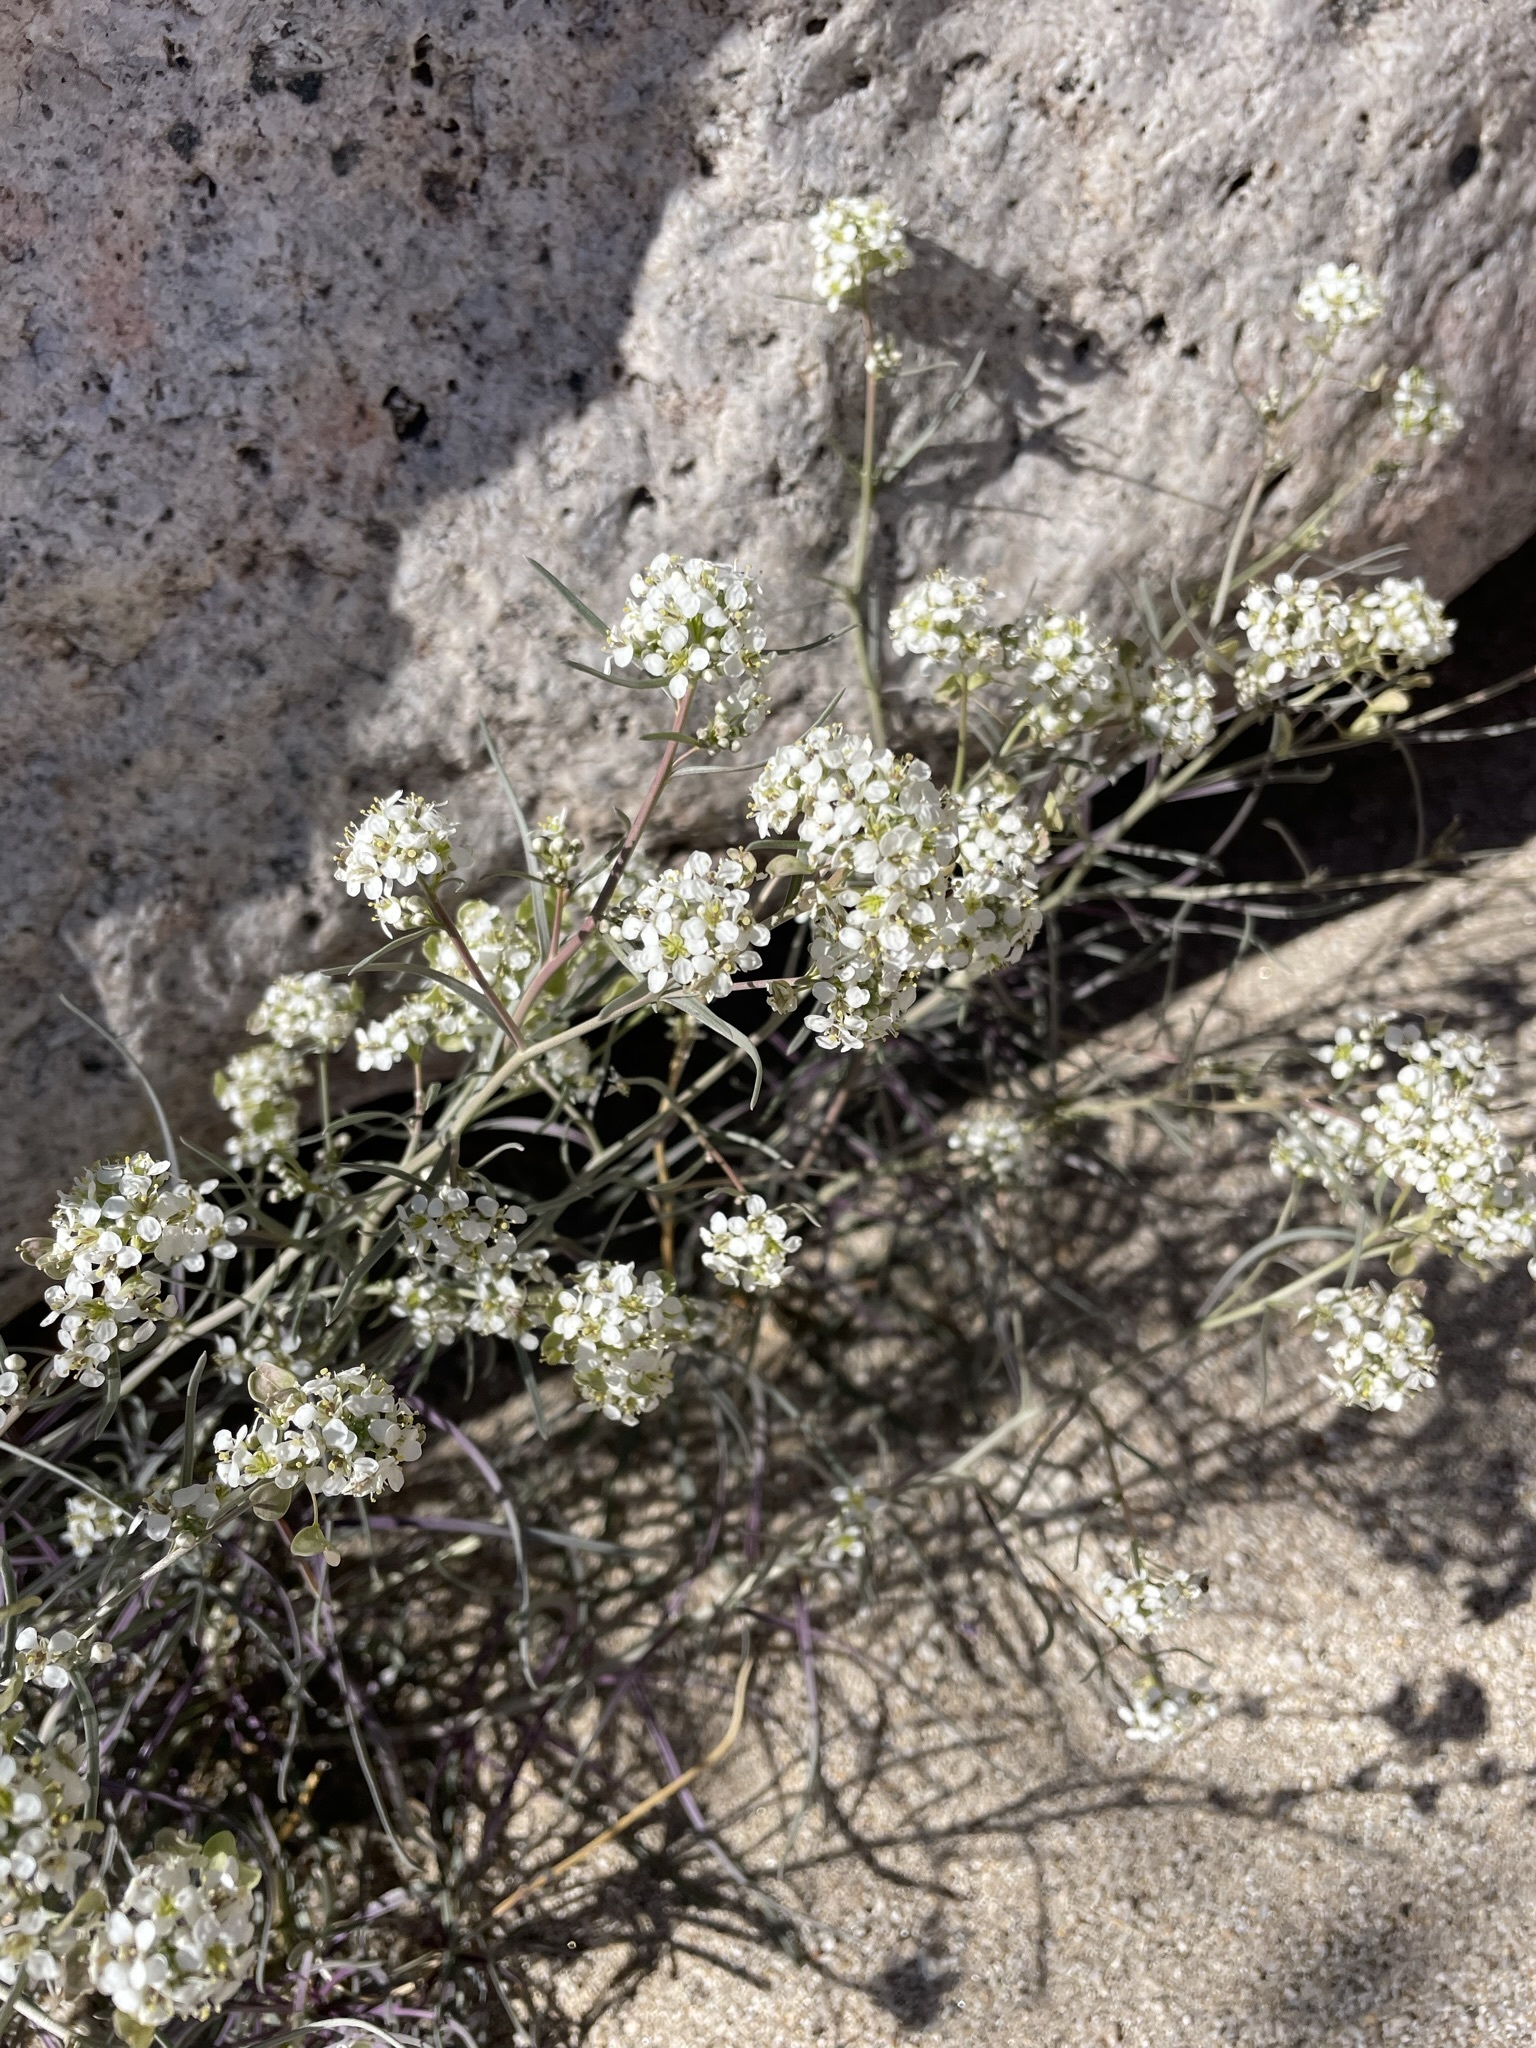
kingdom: Plantae
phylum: Tracheophyta
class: Magnoliopsida
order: Brassicales
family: Brassicaceae
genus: Lepidium
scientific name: Lepidium fremontii
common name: Fremont's pepperwort
